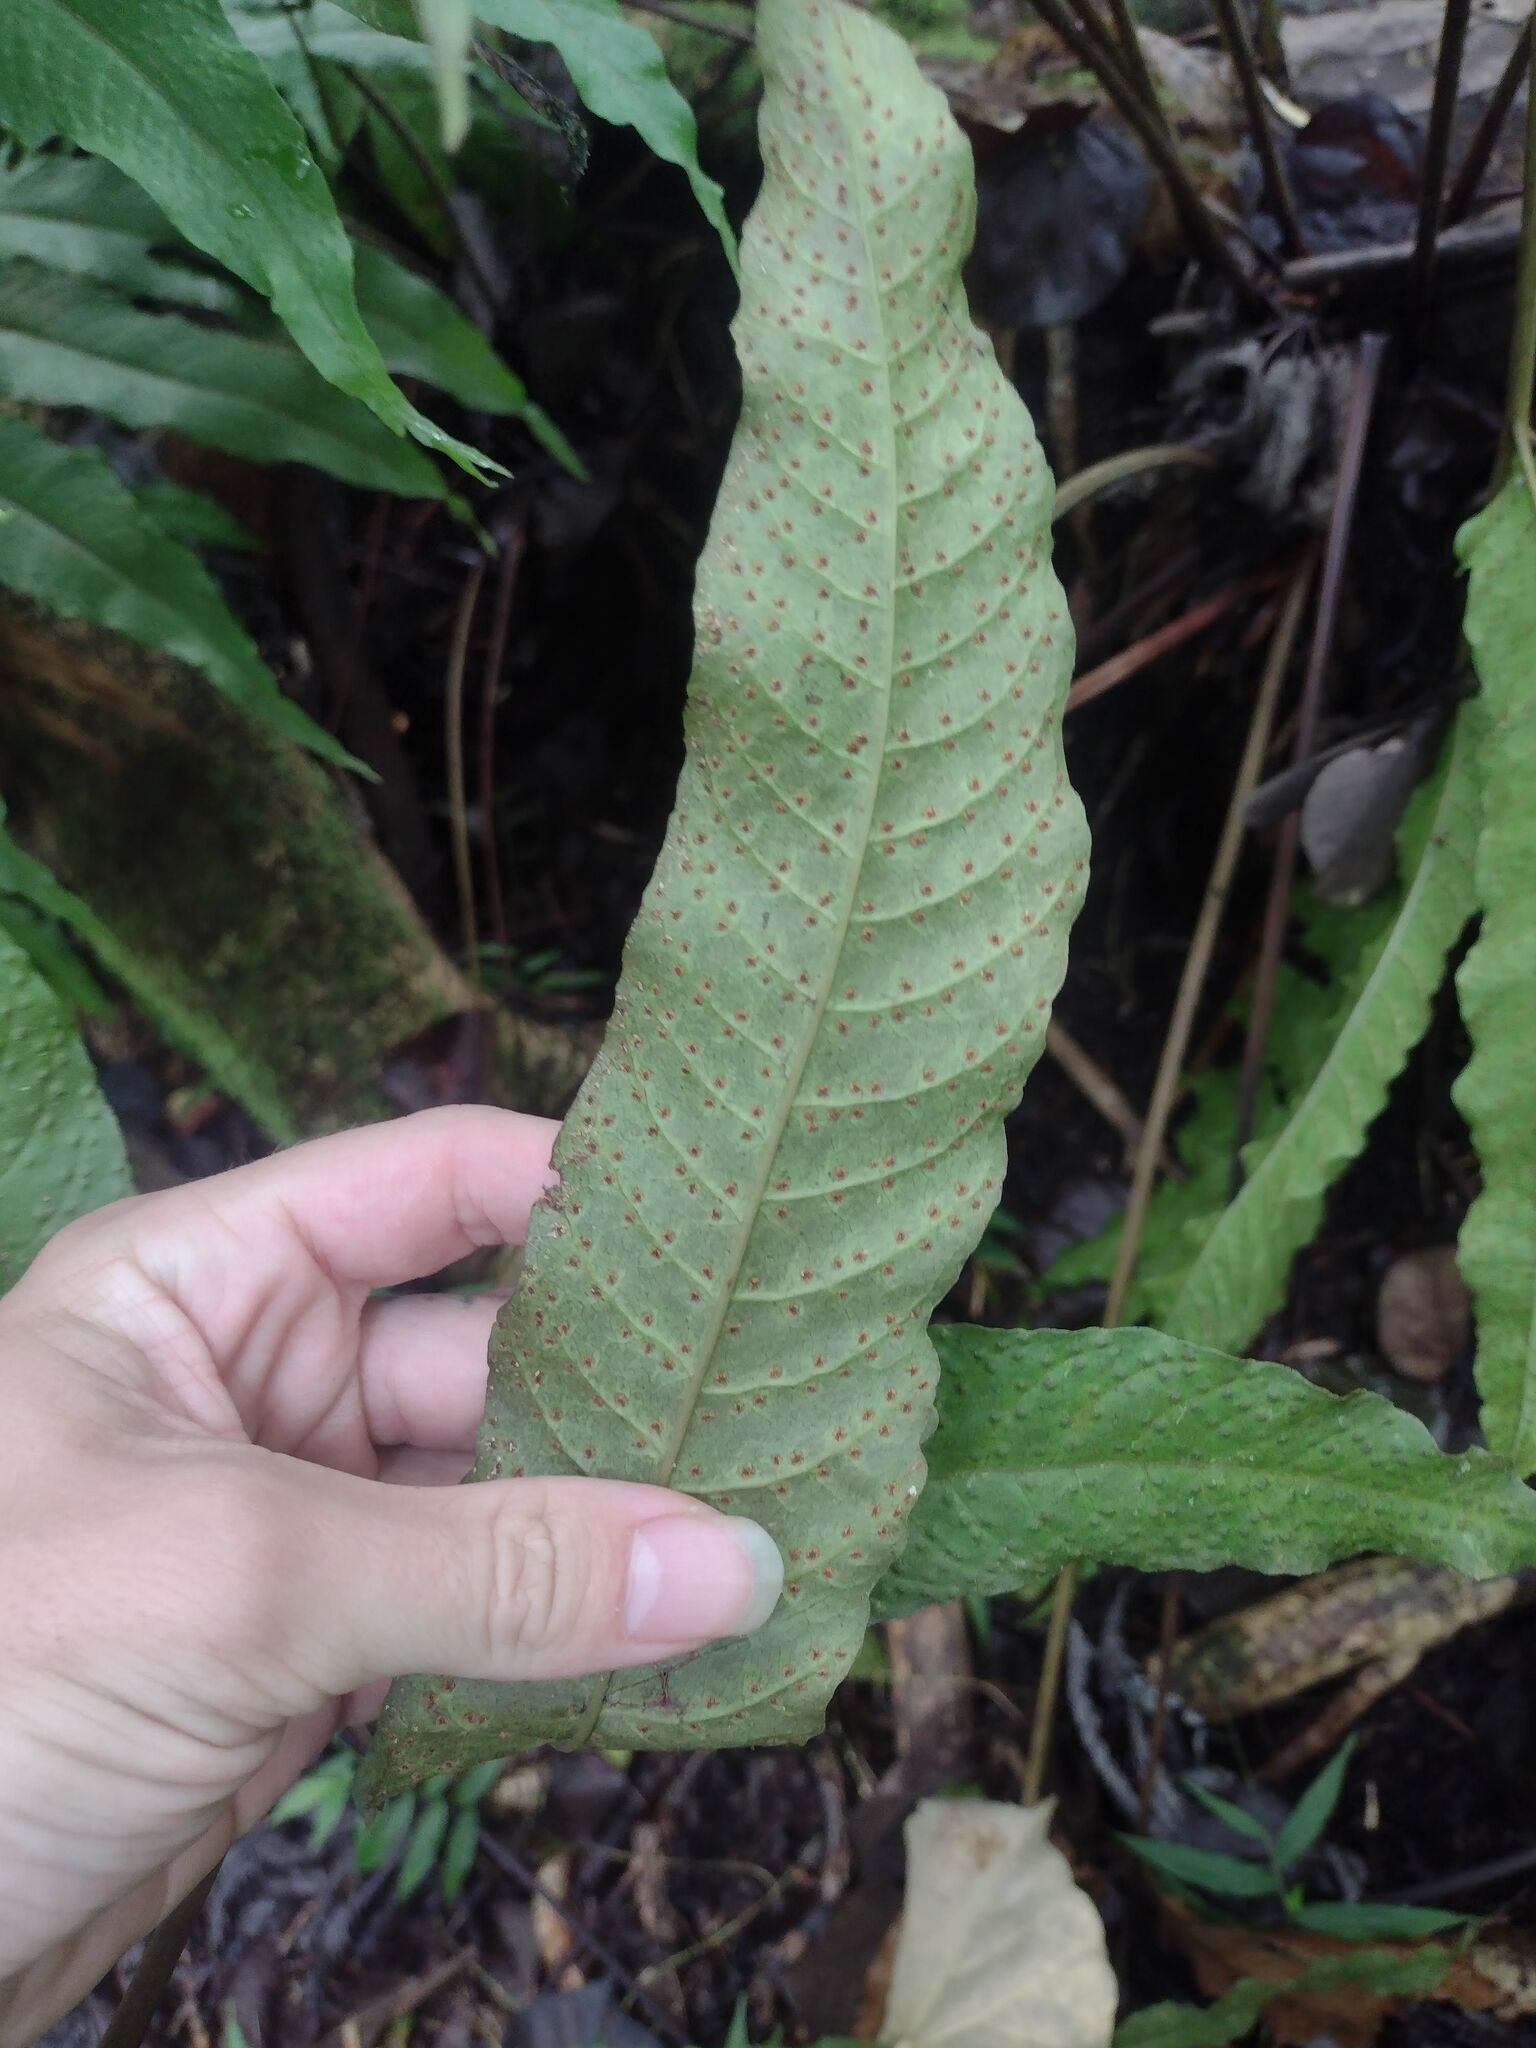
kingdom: Plantae
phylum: Tracheophyta
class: Polypodiopsida
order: Polypodiales
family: Tectariaceae
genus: Tectaria
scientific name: Tectaria incisa
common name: Incised halberd fern
